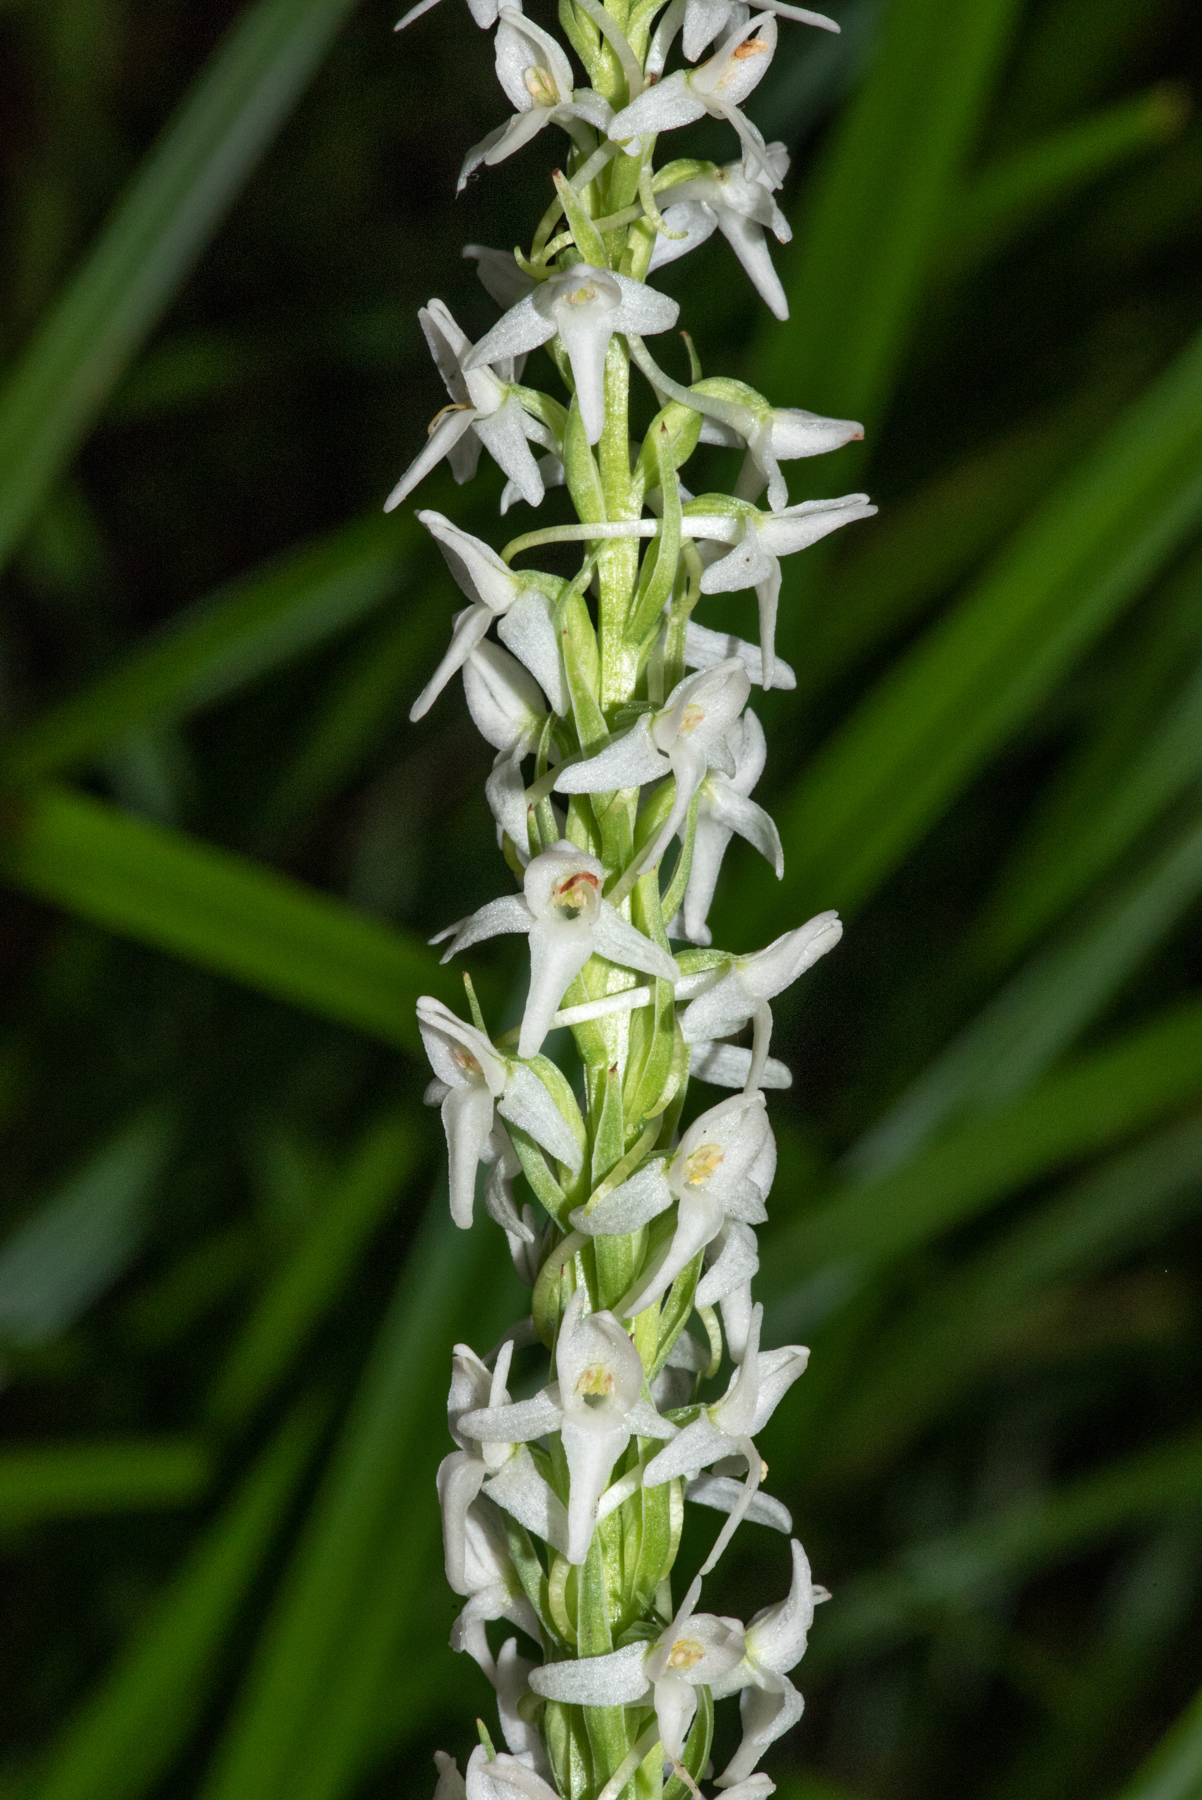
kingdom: Plantae
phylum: Tracheophyta
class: Liliopsida
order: Asparagales
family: Orchidaceae
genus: Platanthera
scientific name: Platanthera dilatata
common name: Bog candles
